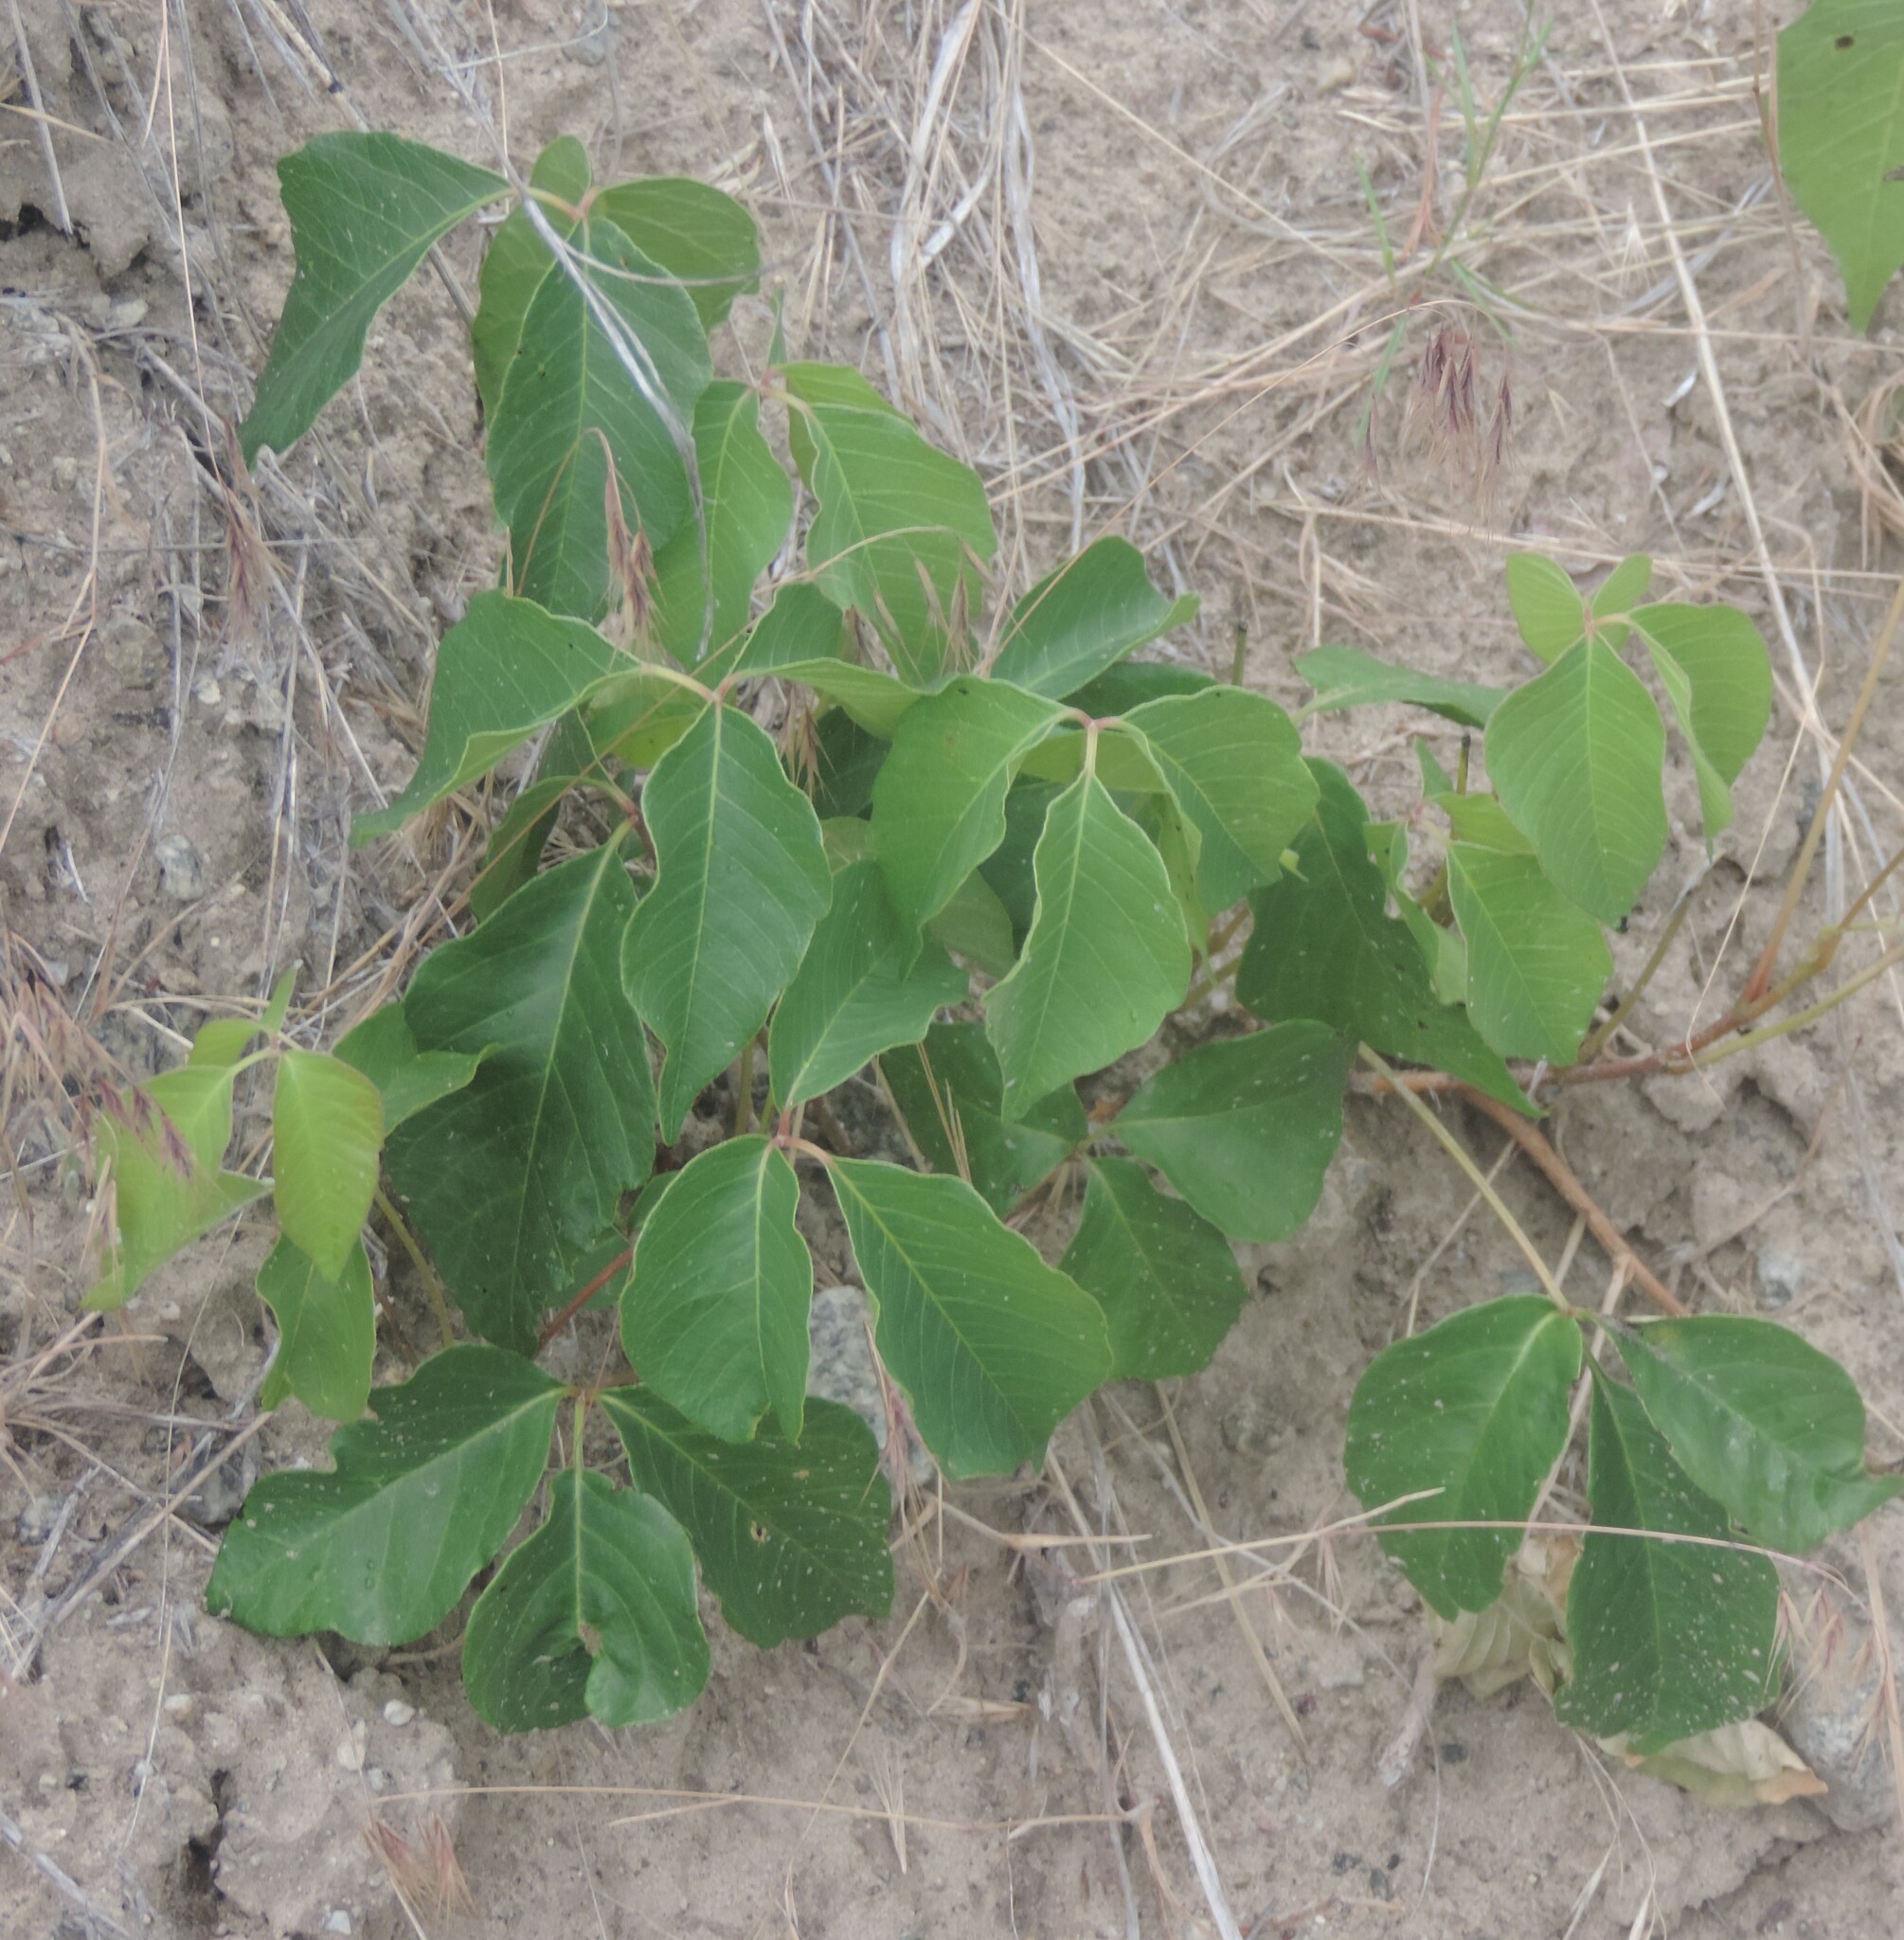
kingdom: Plantae
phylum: Tracheophyta
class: Magnoliopsida
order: Sapindales
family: Anacardiaceae
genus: Toxicodendron
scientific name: Toxicodendron rydbergii
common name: Rydberg's poison-ivy
